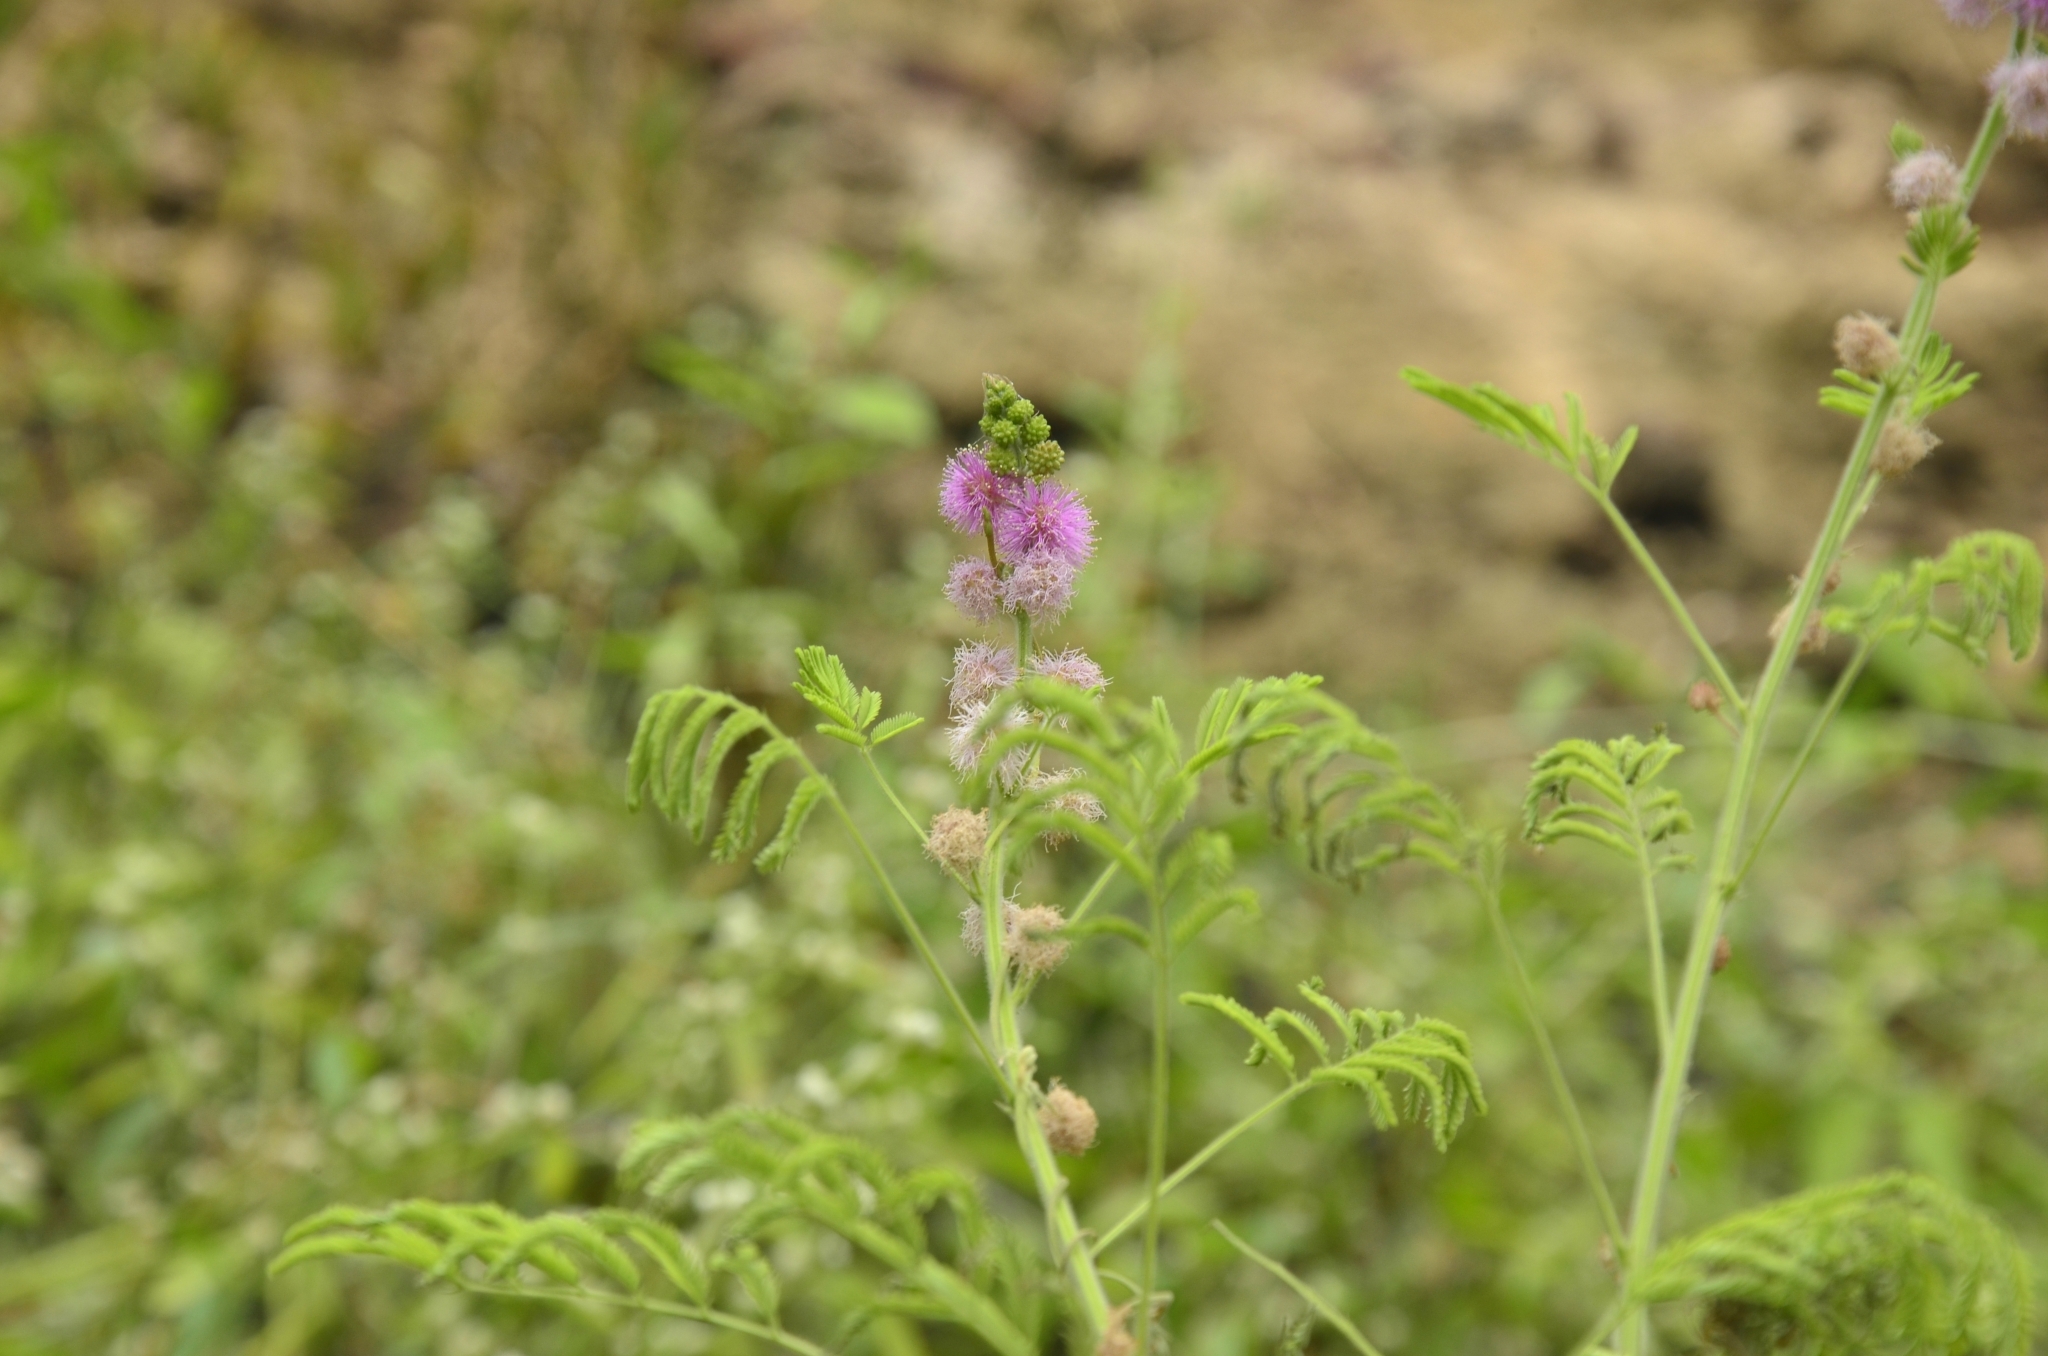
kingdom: Plantae
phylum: Tracheophyta
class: Magnoliopsida
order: Fabales
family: Fabaceae
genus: Mimosa
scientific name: Mimosa diplotricha
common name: Giant sensitive-plant
